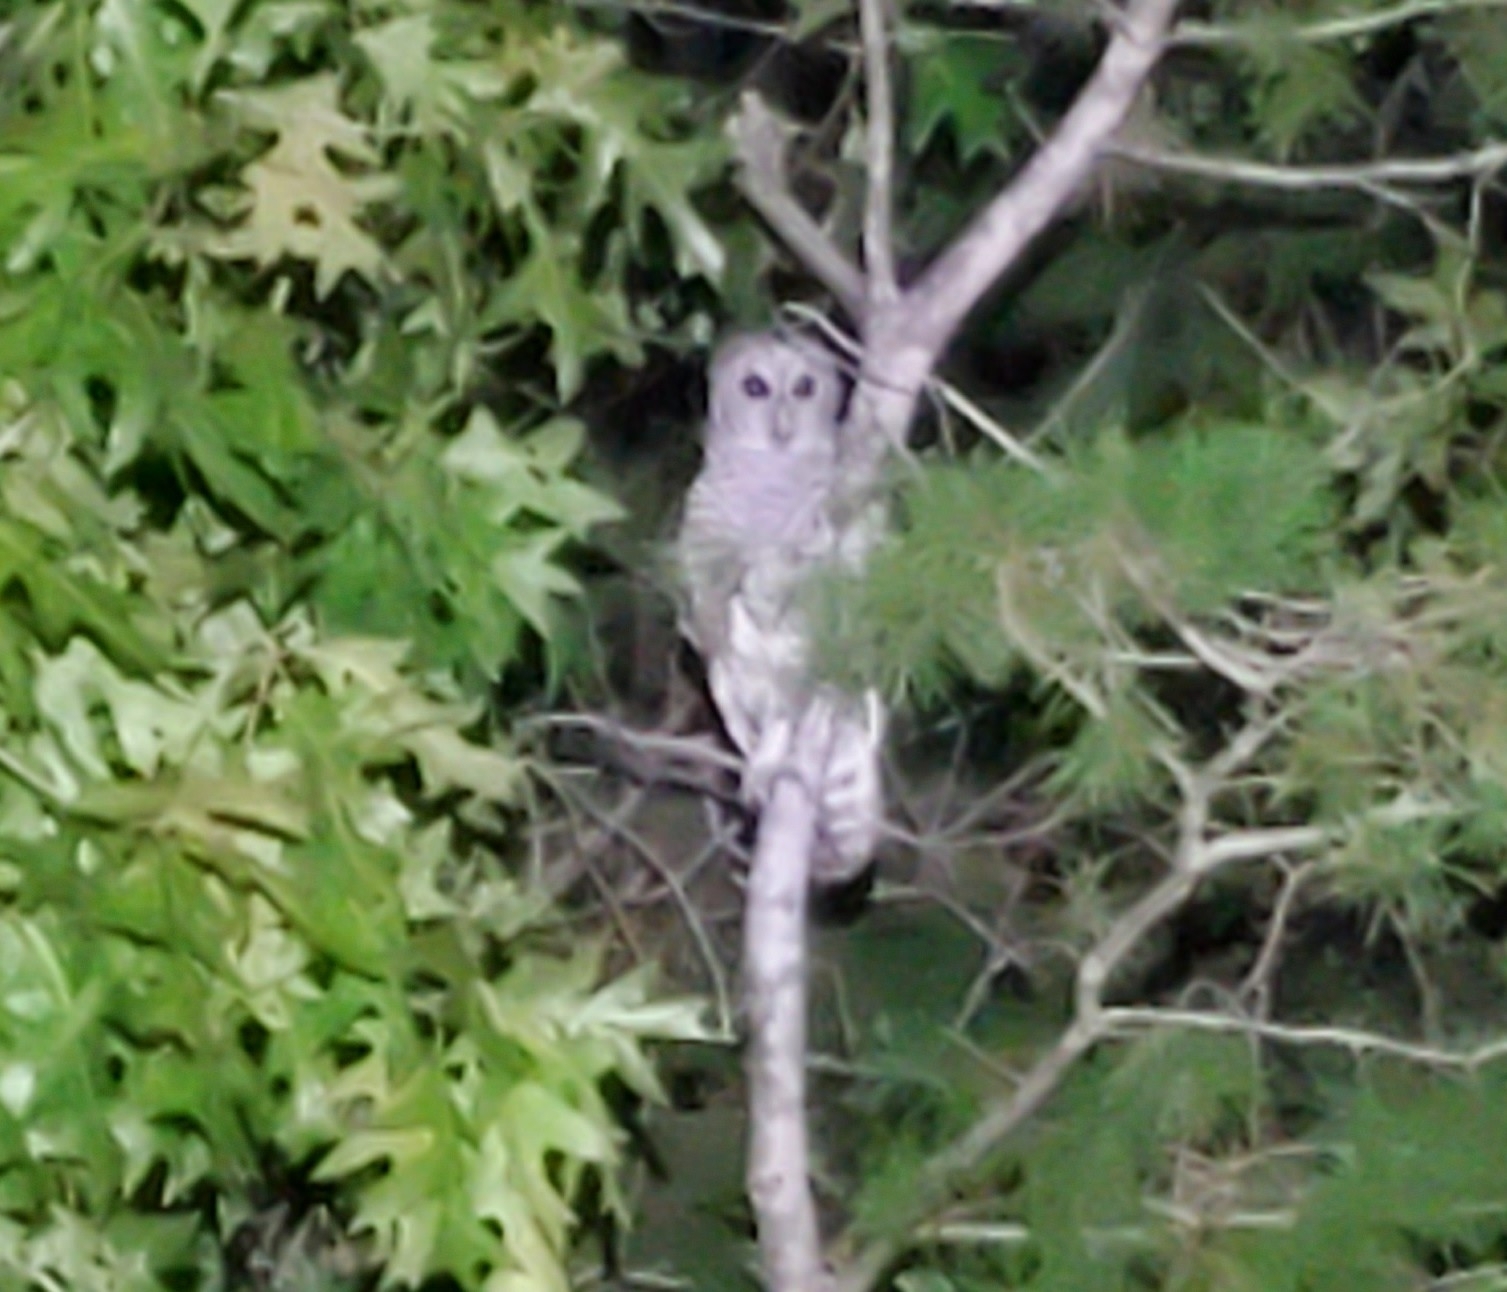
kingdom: Animalia
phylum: Chordata
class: Aves
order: Strigiformes
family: Strigidae
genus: Strix
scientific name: Strix varia
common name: Barred owl
